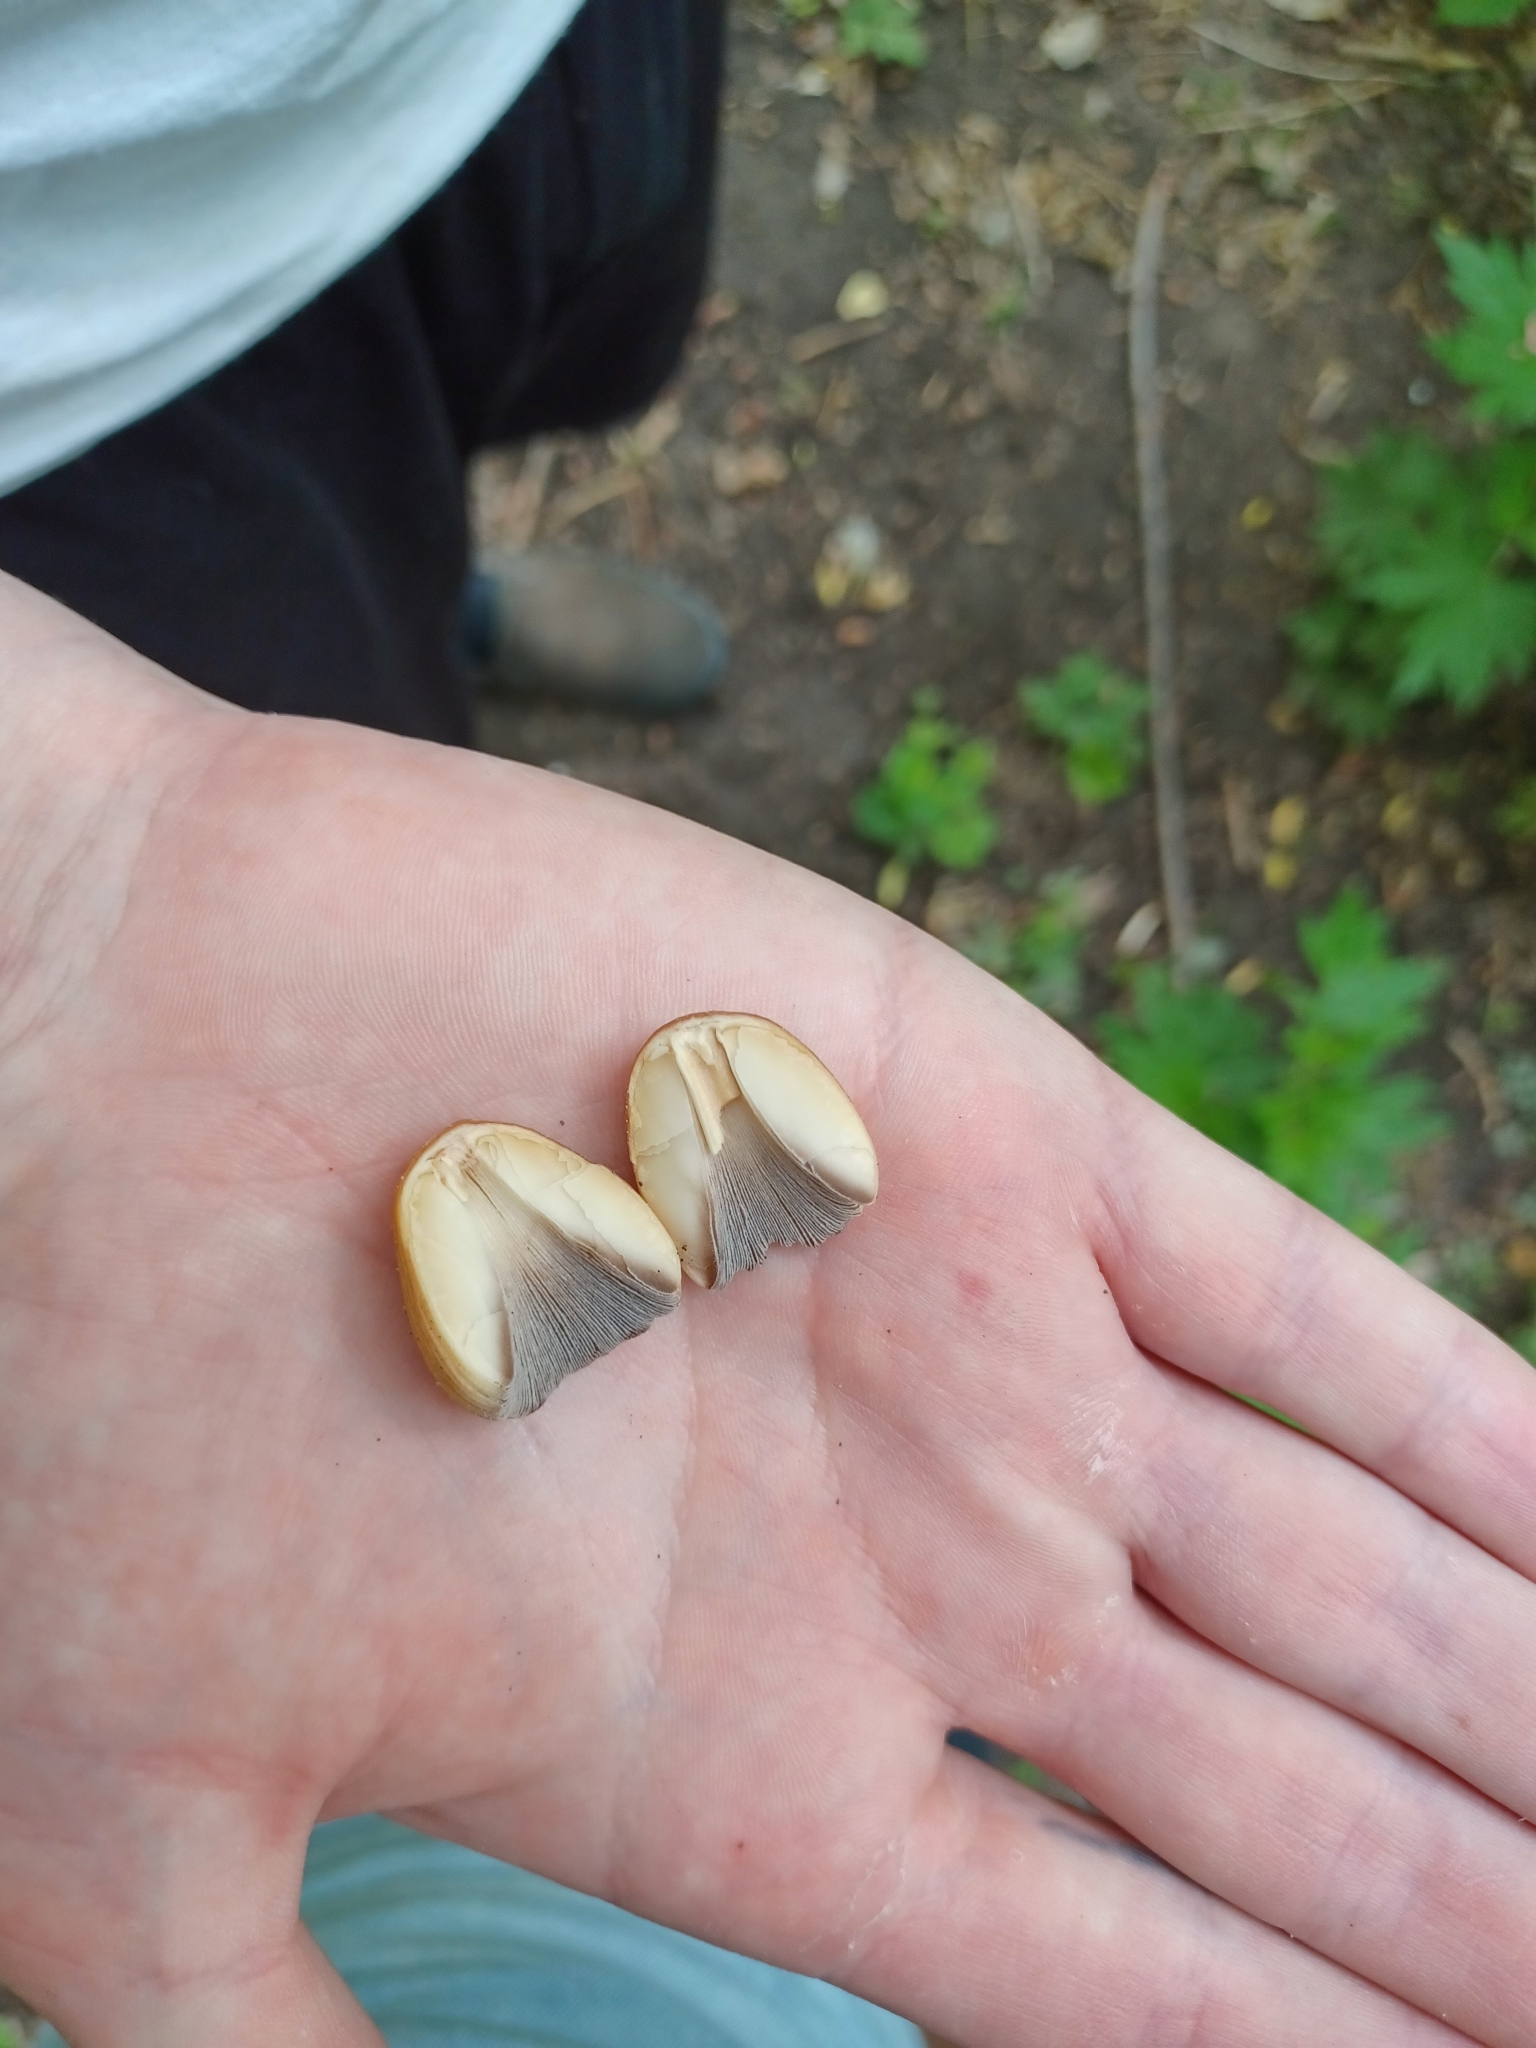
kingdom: Fungi
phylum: Basidiomycota
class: Agaricomycetes
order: Agaricales
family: Psathyrellaceae
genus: Coprinellus
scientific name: Coprinellus micaceus
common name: Glistening ink-cap
